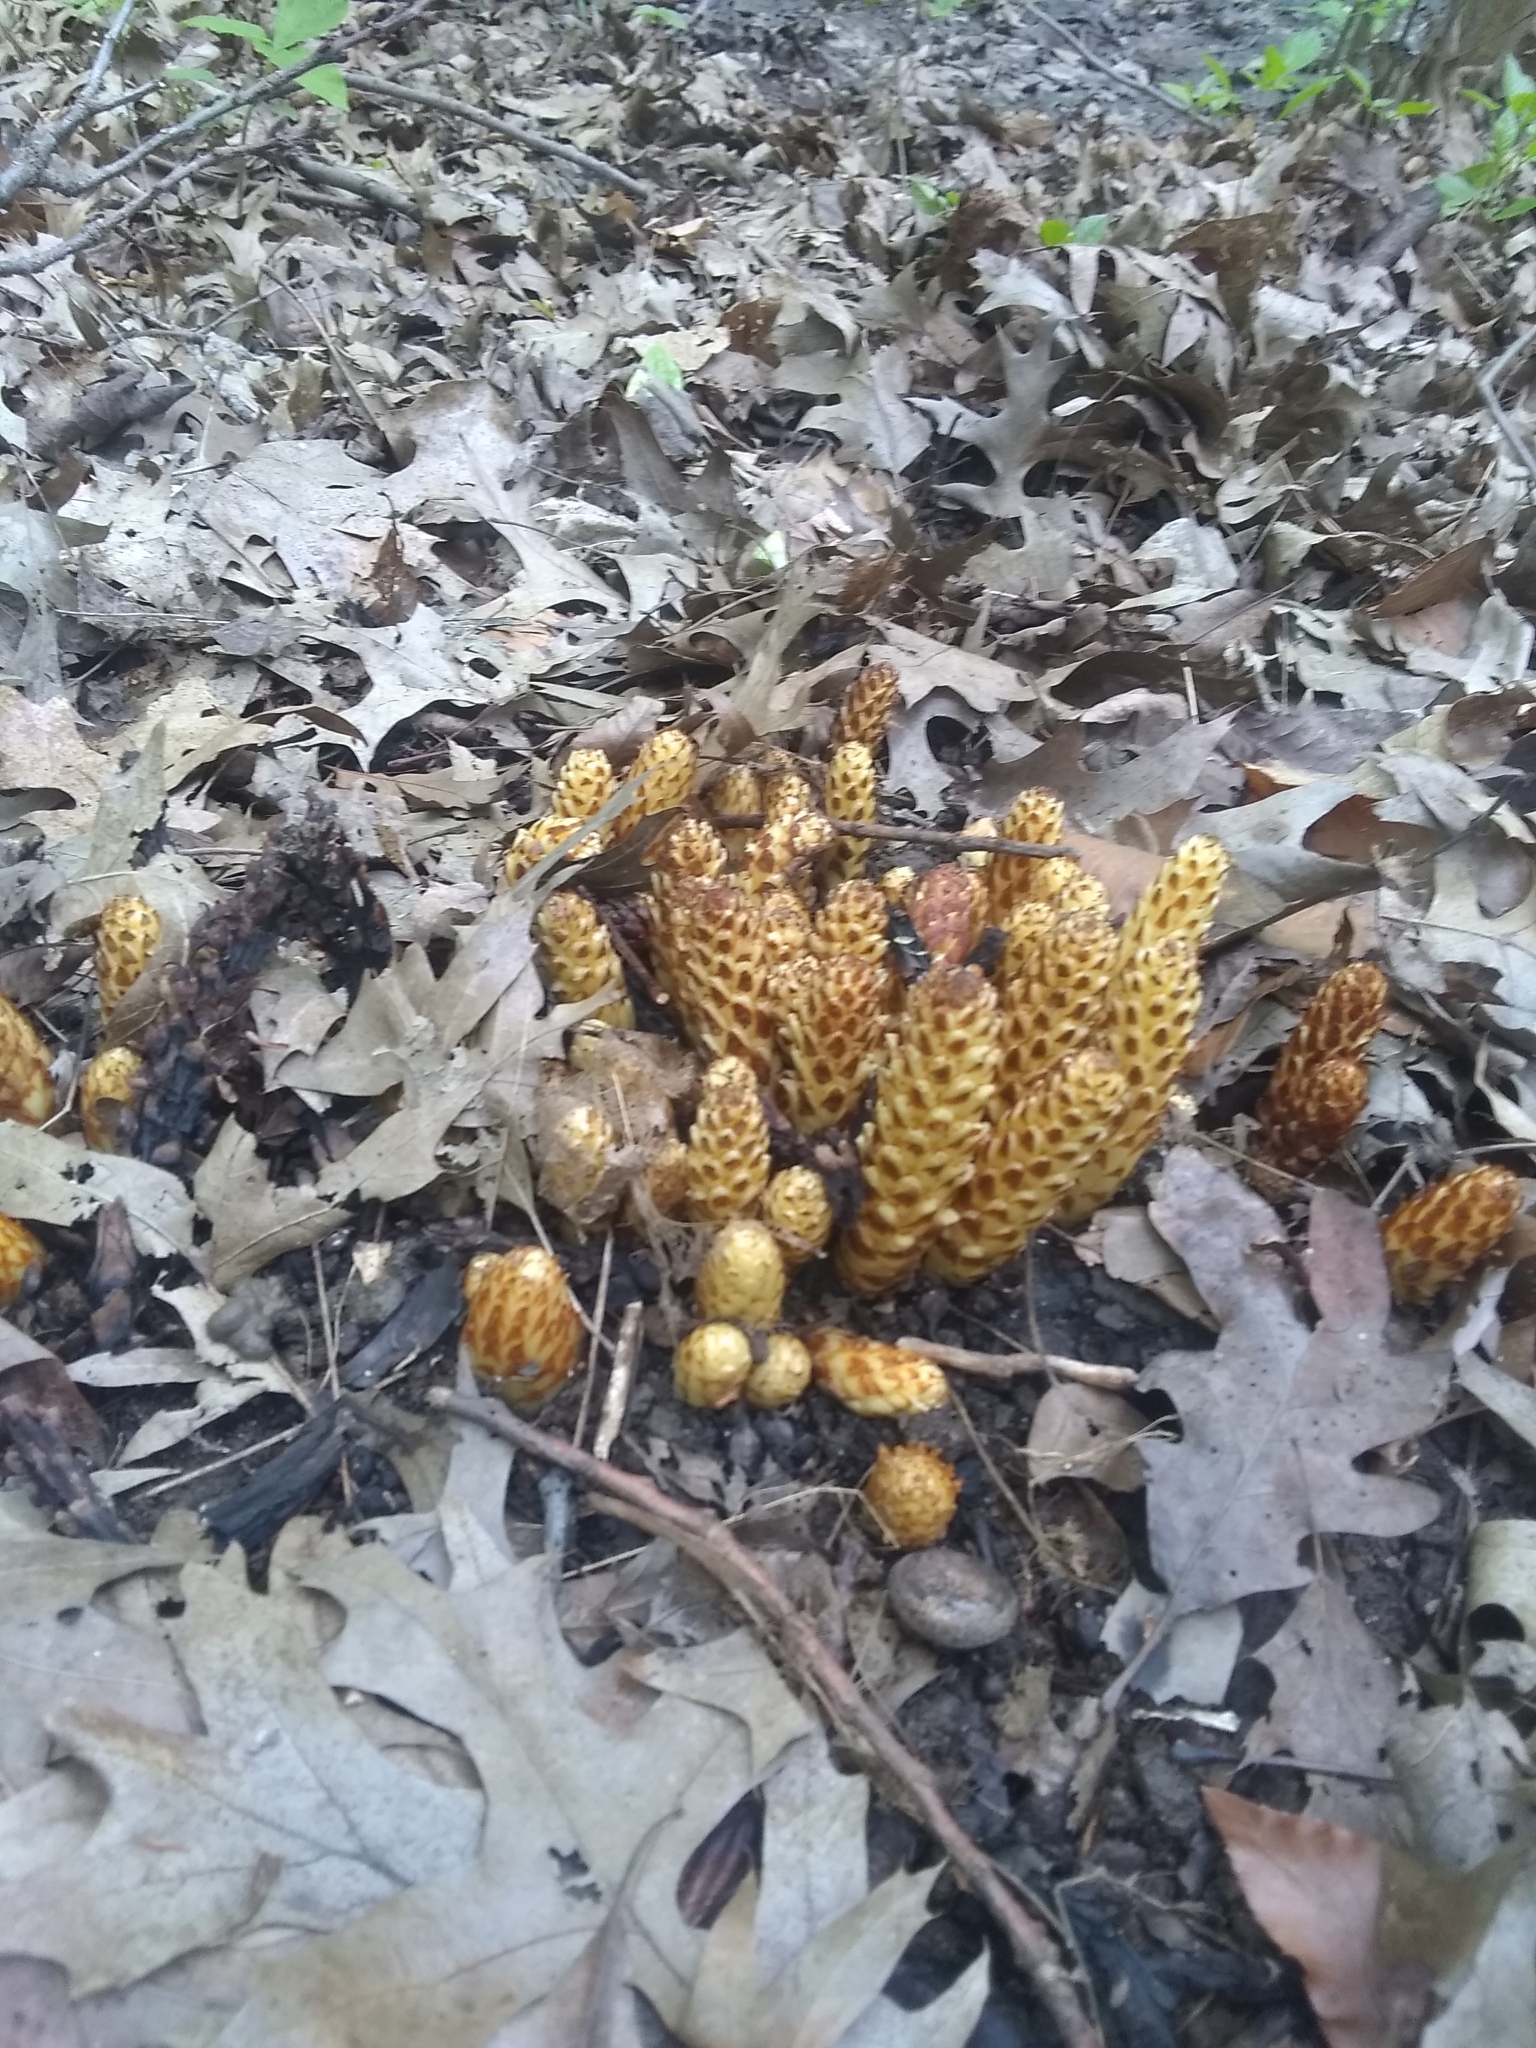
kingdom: Plantae
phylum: Tracheophyta
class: Magnoliopsida
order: Lamiales
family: Orobanchaceae
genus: Conopholis
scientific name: Conopholis americana
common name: American cancer-root
